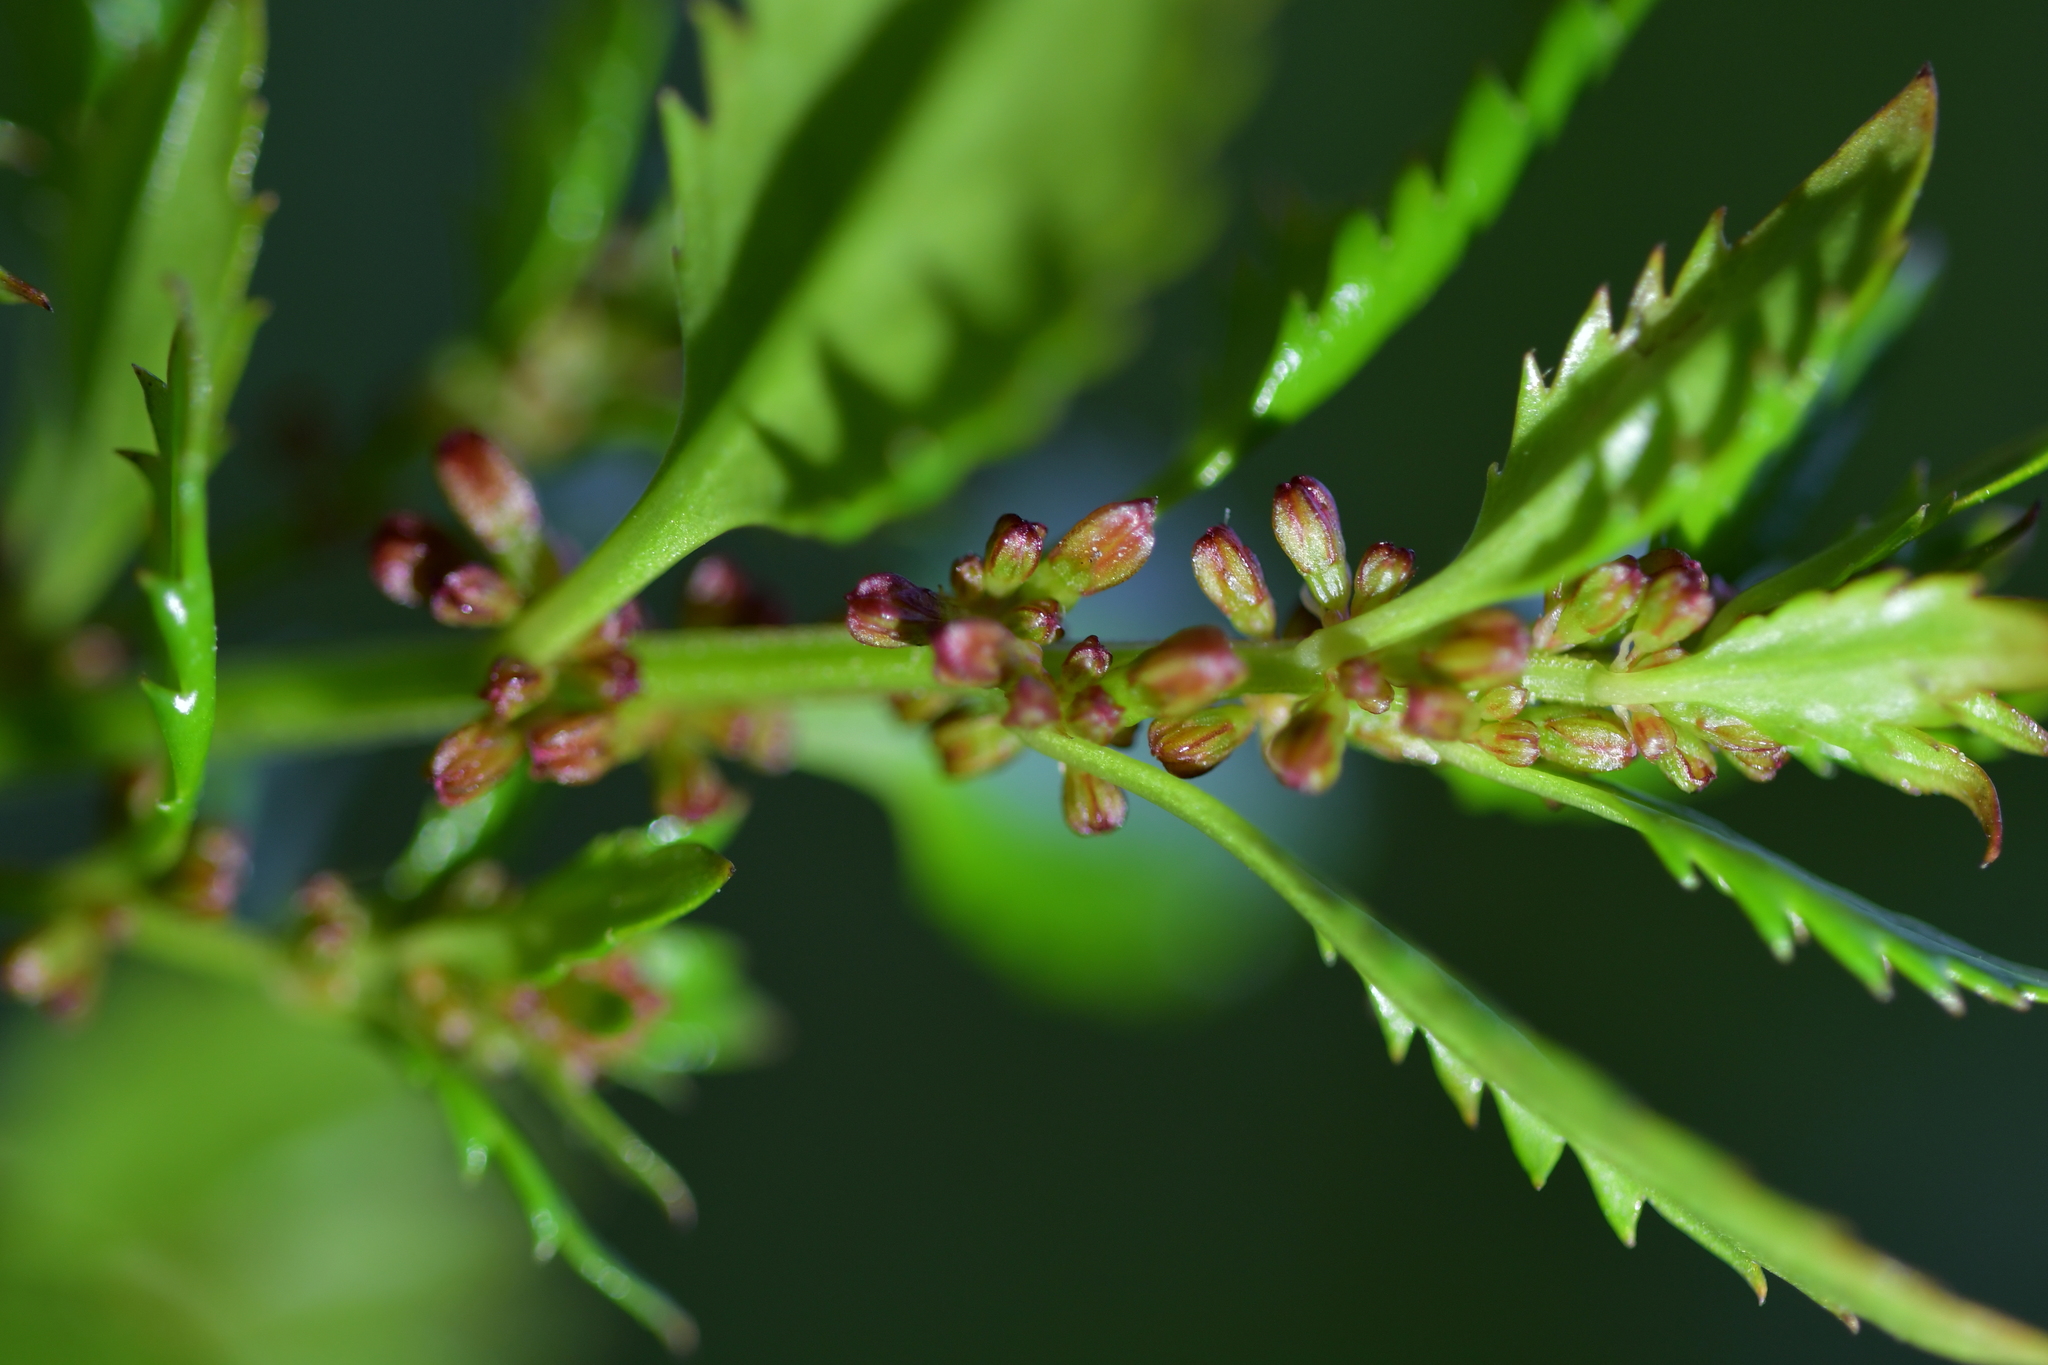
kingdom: Plantae
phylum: Tracheophyta
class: Magnoliopsida
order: Saxifragales
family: Haloragaceae
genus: Haloragis
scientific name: Haloragis erecta
